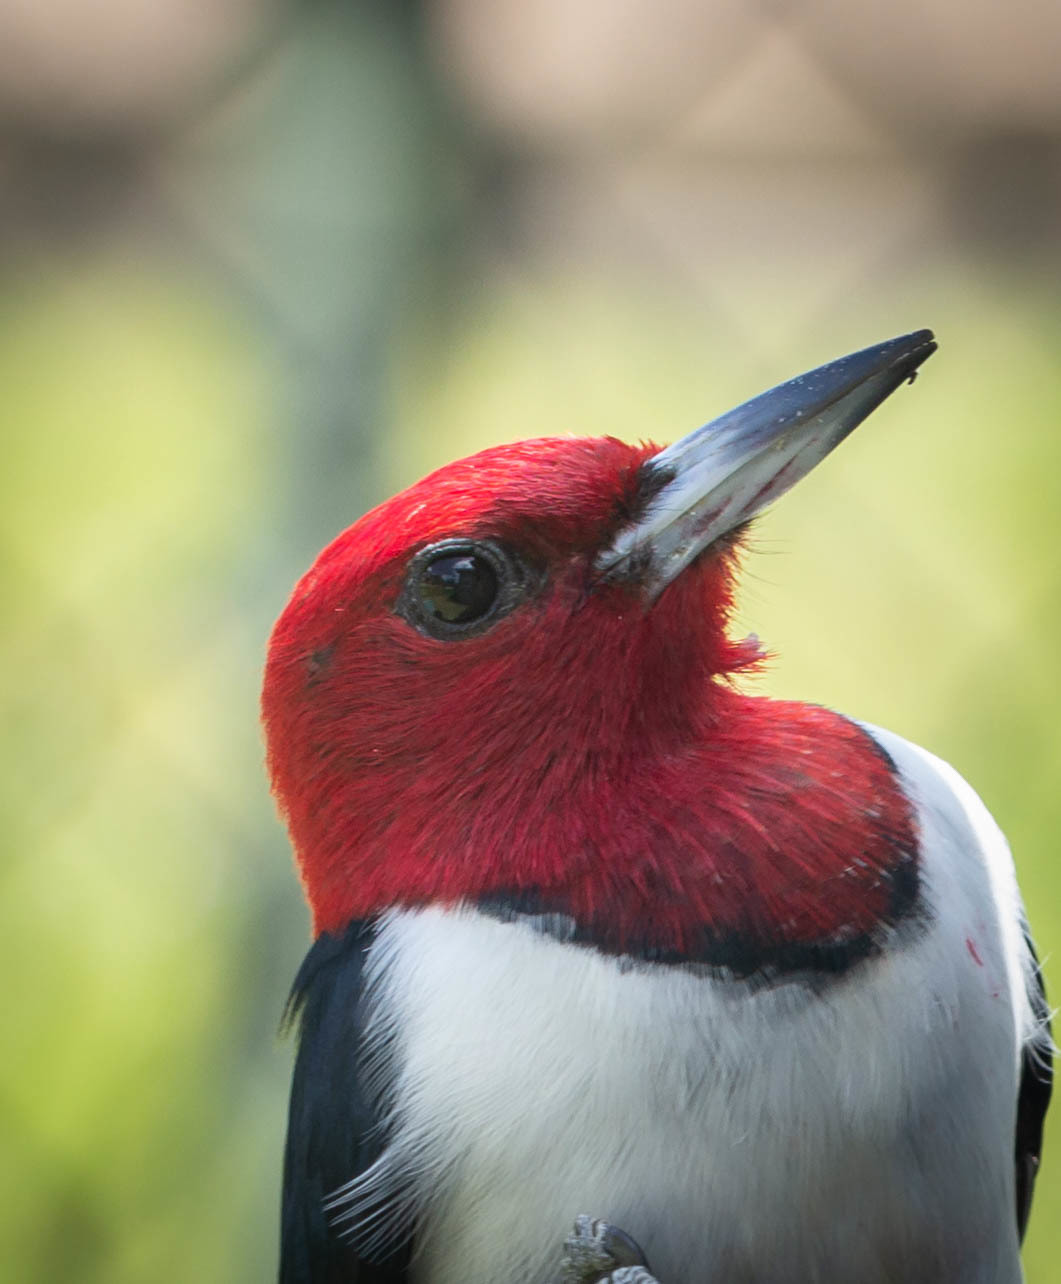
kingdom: Animalia
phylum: Chordata
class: Aves
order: Piciformes
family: Picidae
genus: Melanerpes
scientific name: Melanerpes erythrocephalus
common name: Red-headed woodpecker
